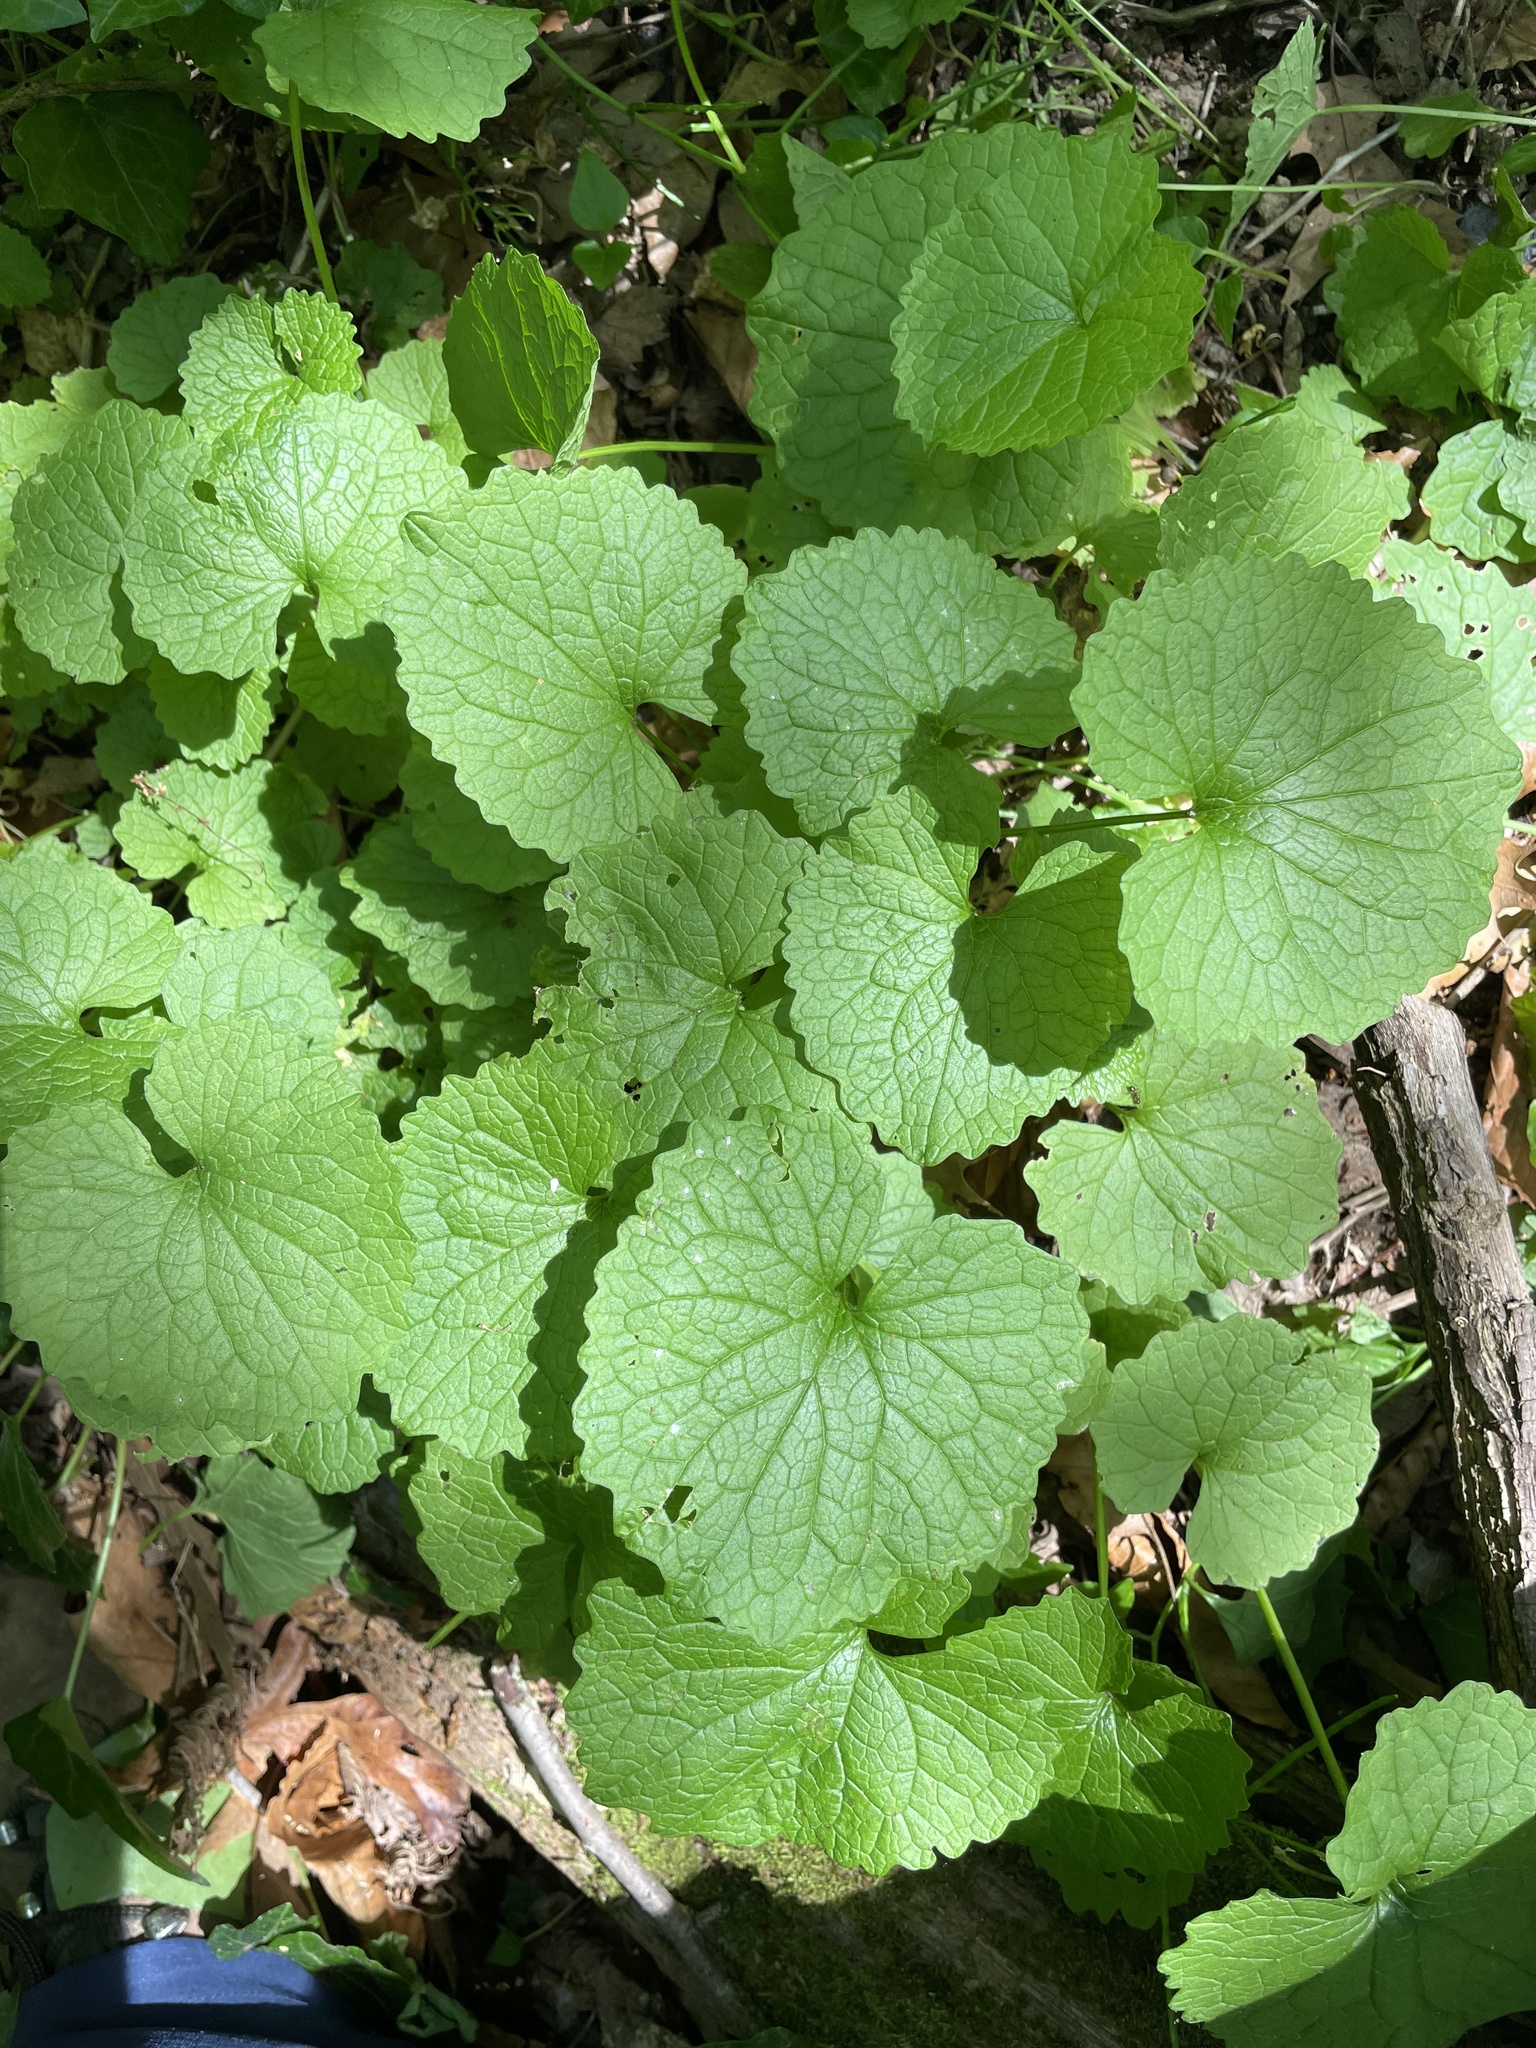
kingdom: Plantae
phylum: Tracheophyta
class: Magnoliopsida
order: Brassicales
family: Brassicaceae
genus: Alliaria
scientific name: Alliaria petiolata
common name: Garlic mustard
